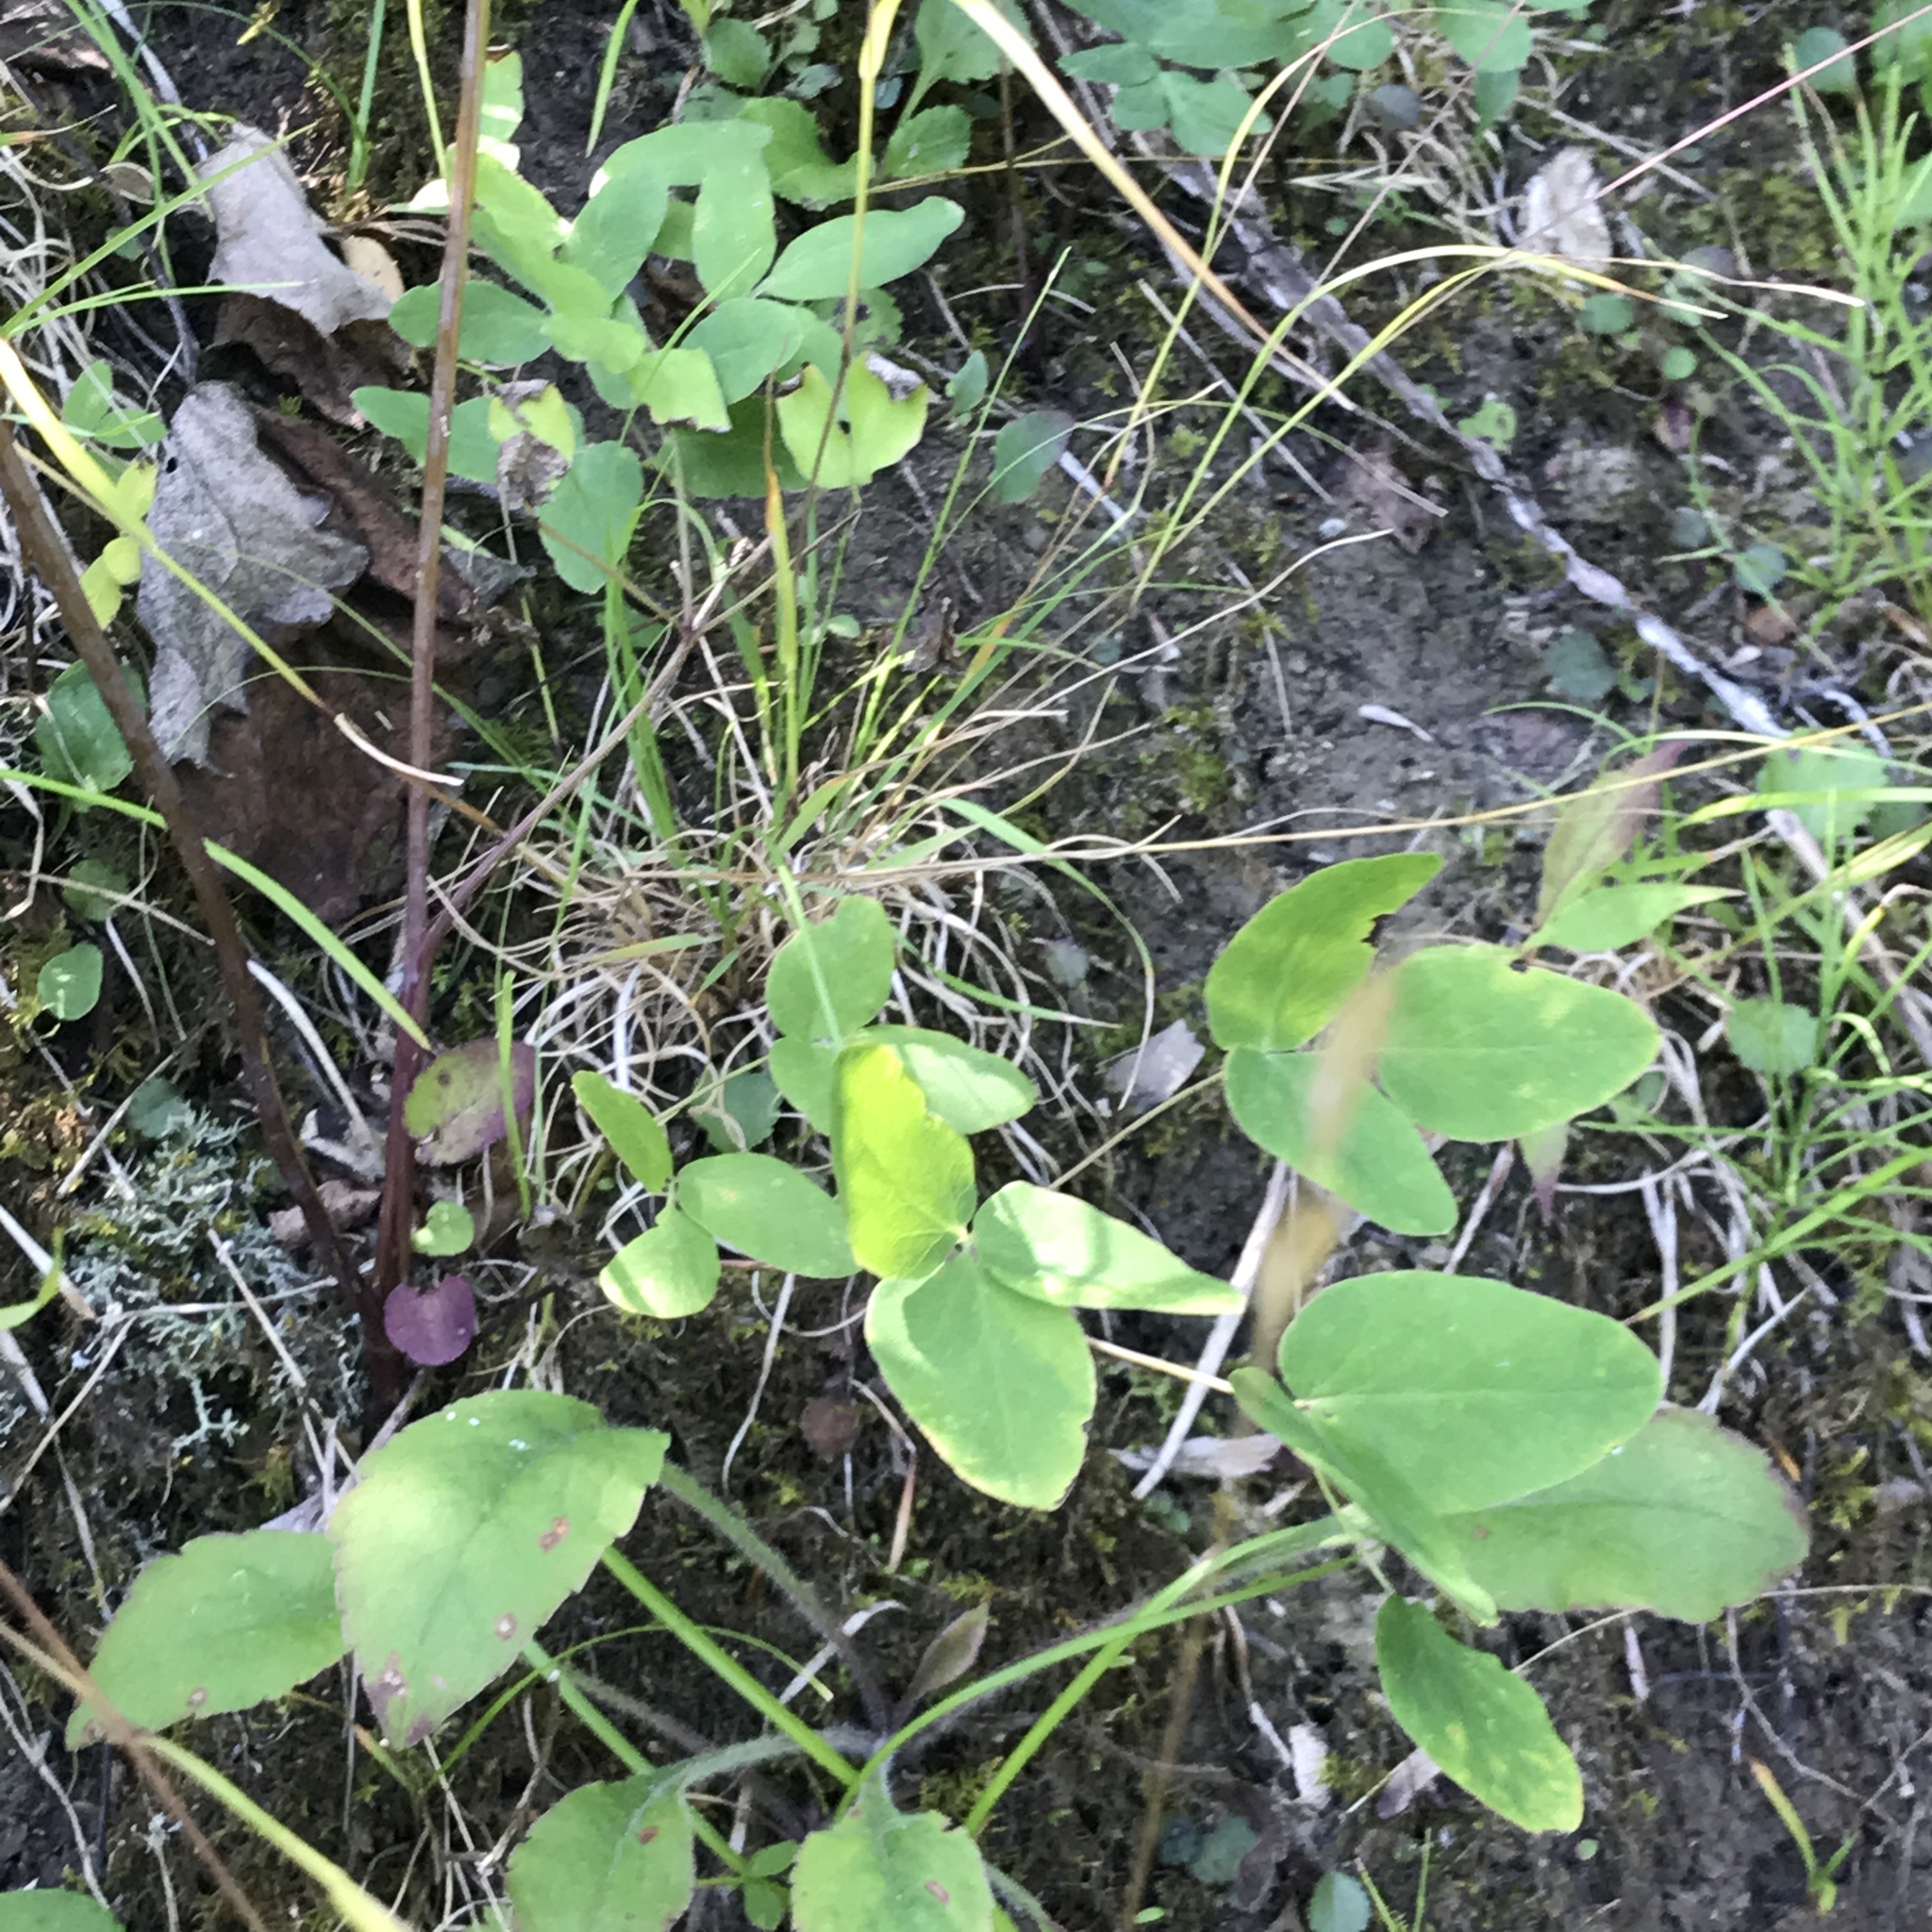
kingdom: Plantae
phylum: Tracheophyta
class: Magnoliopsida
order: Apiales
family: Apiaceae
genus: Taenidia
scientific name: Taenidia integerrima
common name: Golden alexander
